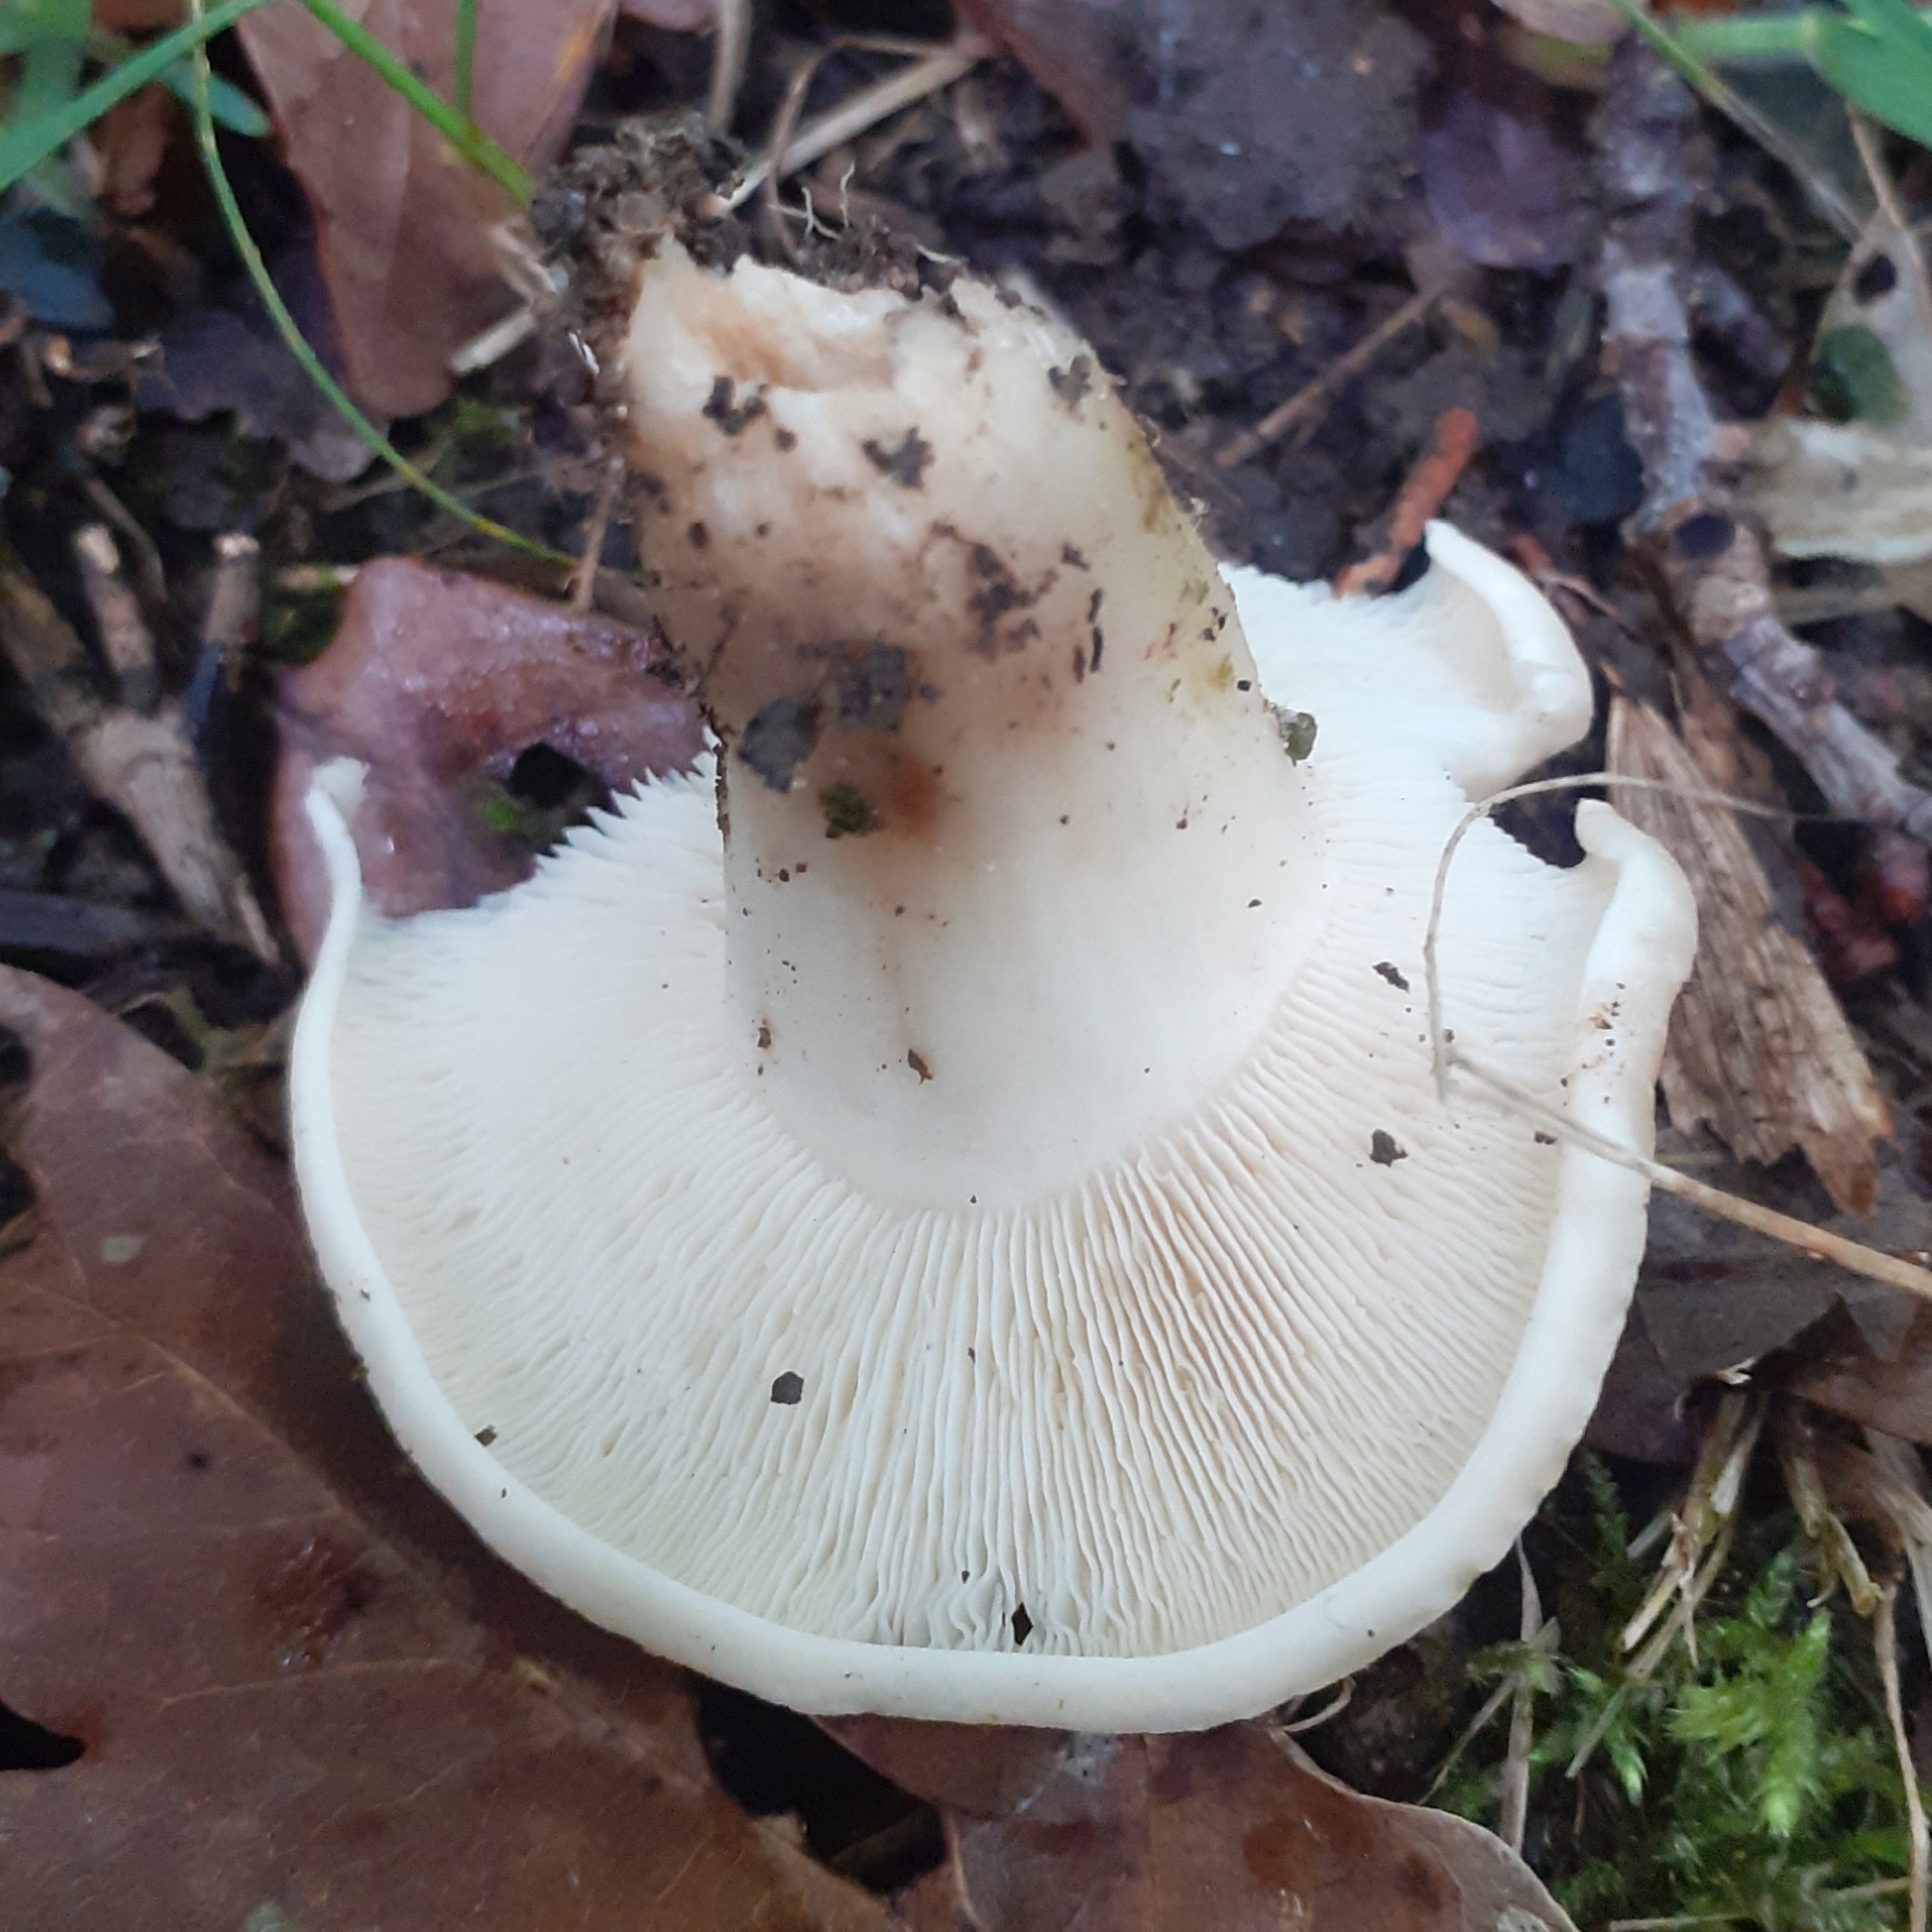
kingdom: Fungi
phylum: Basidiomycota
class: Agaricomycetes
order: Agaricales
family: Lyophyllaceae
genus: Calocybe
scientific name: Calocybe gambosa
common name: St. george's mushroom
